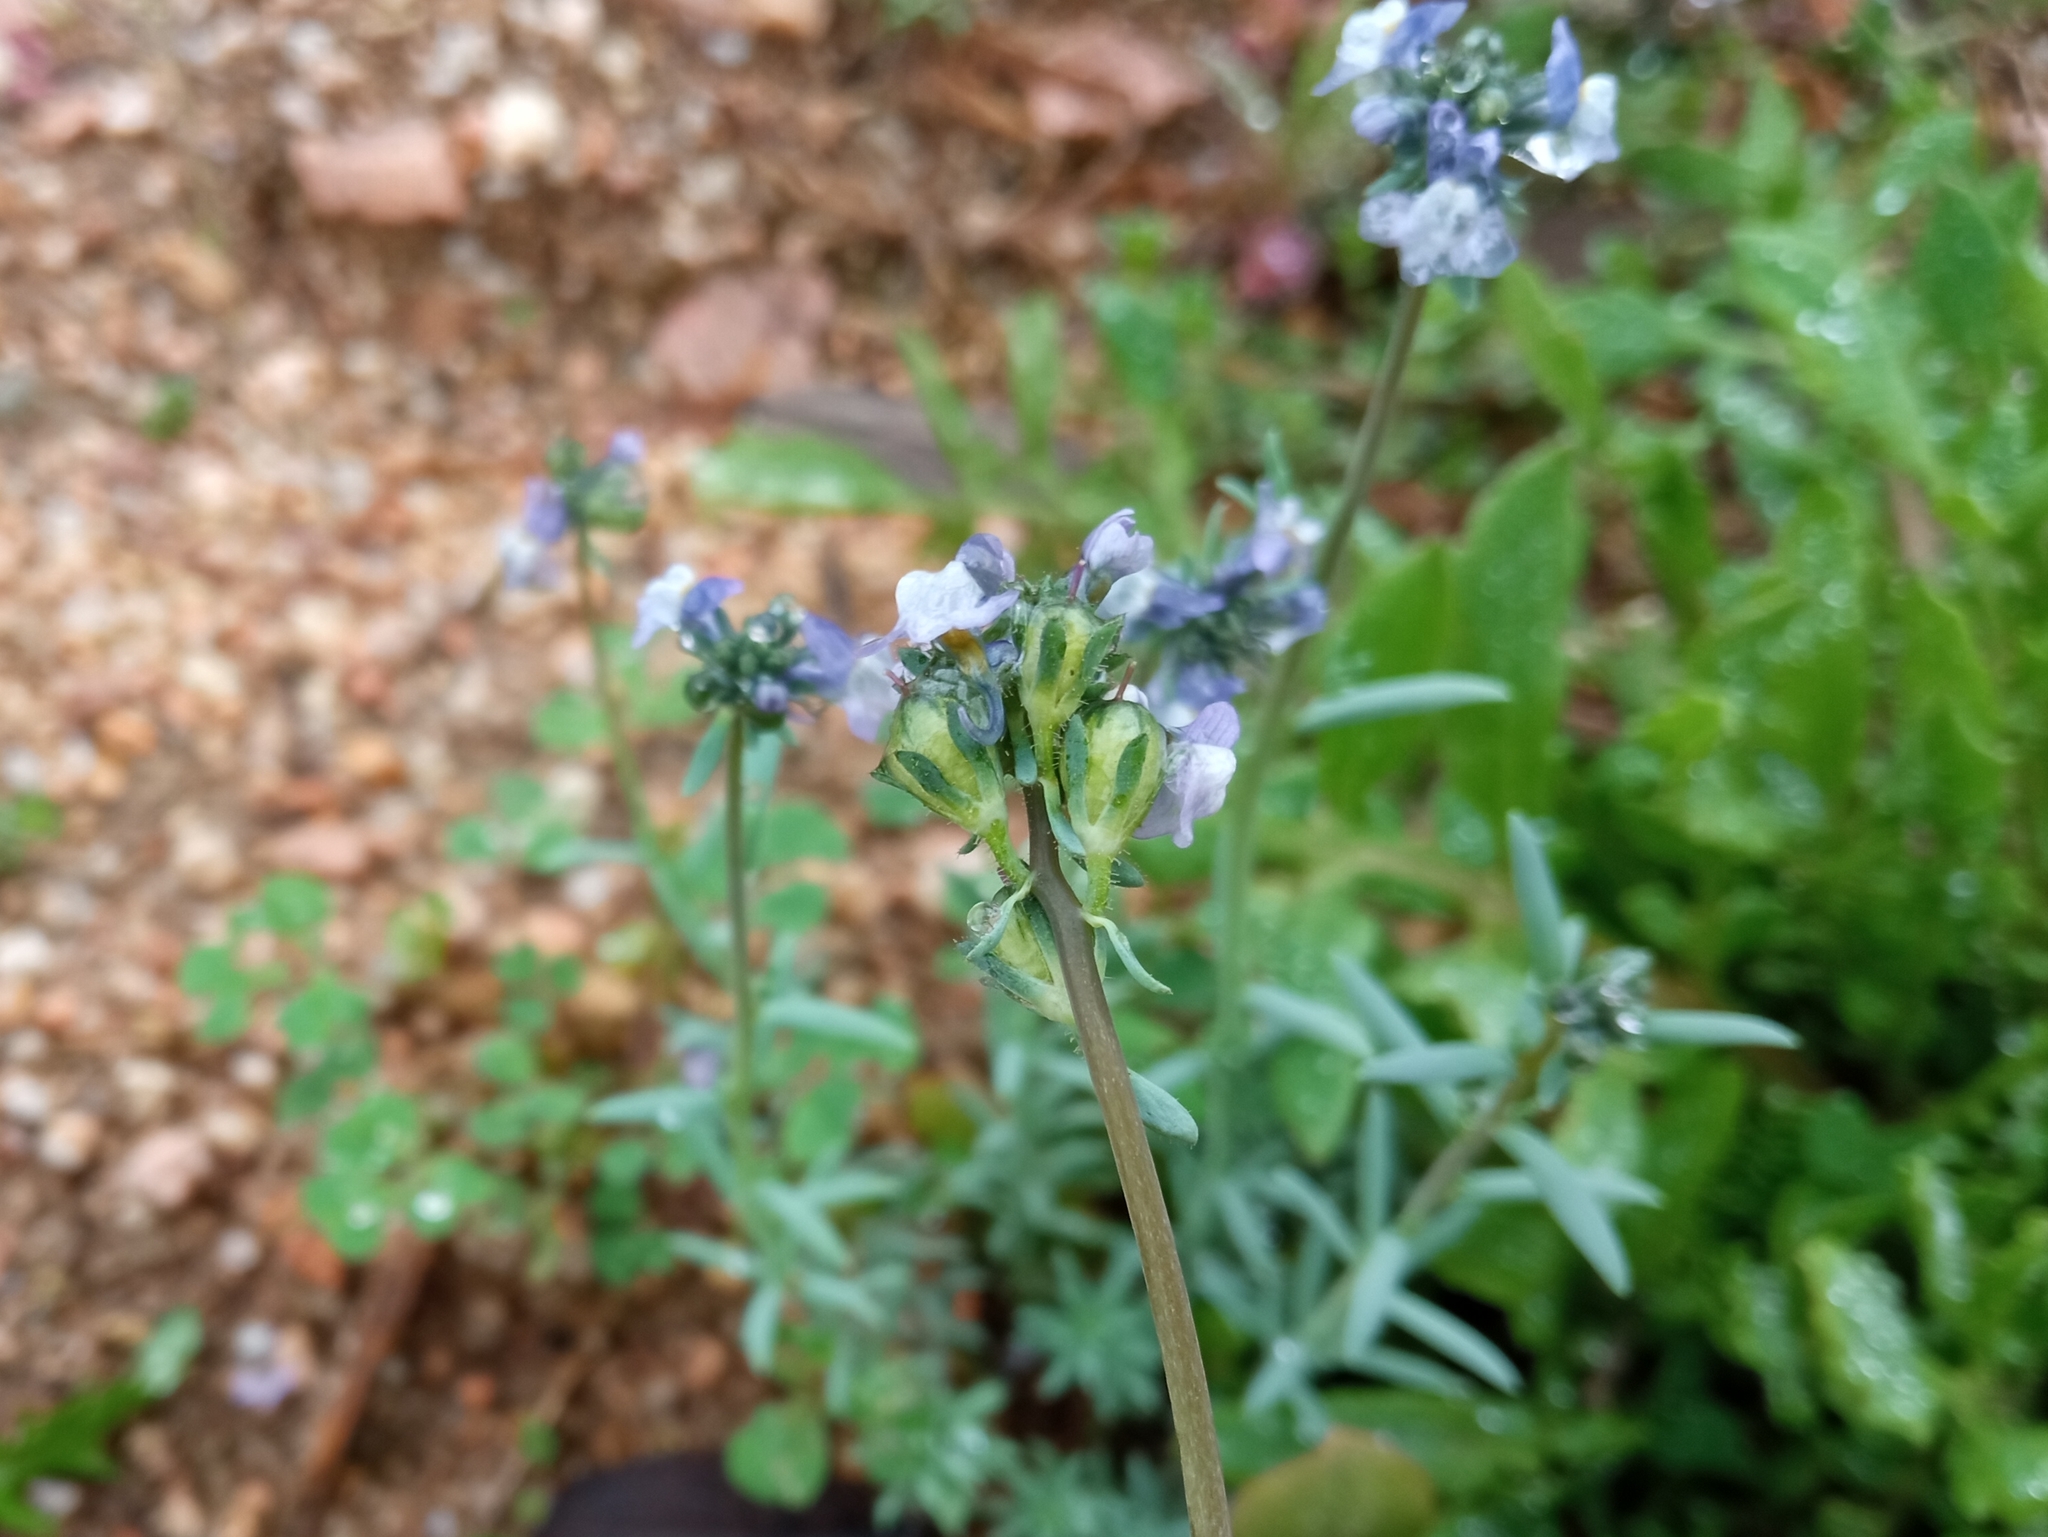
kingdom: Plantae
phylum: Tracheophyta
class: Magnoliopsida
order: Lamiales
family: Plantaginaceae
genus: Linaria
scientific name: Linaria arvensis
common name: Corn toadflax
